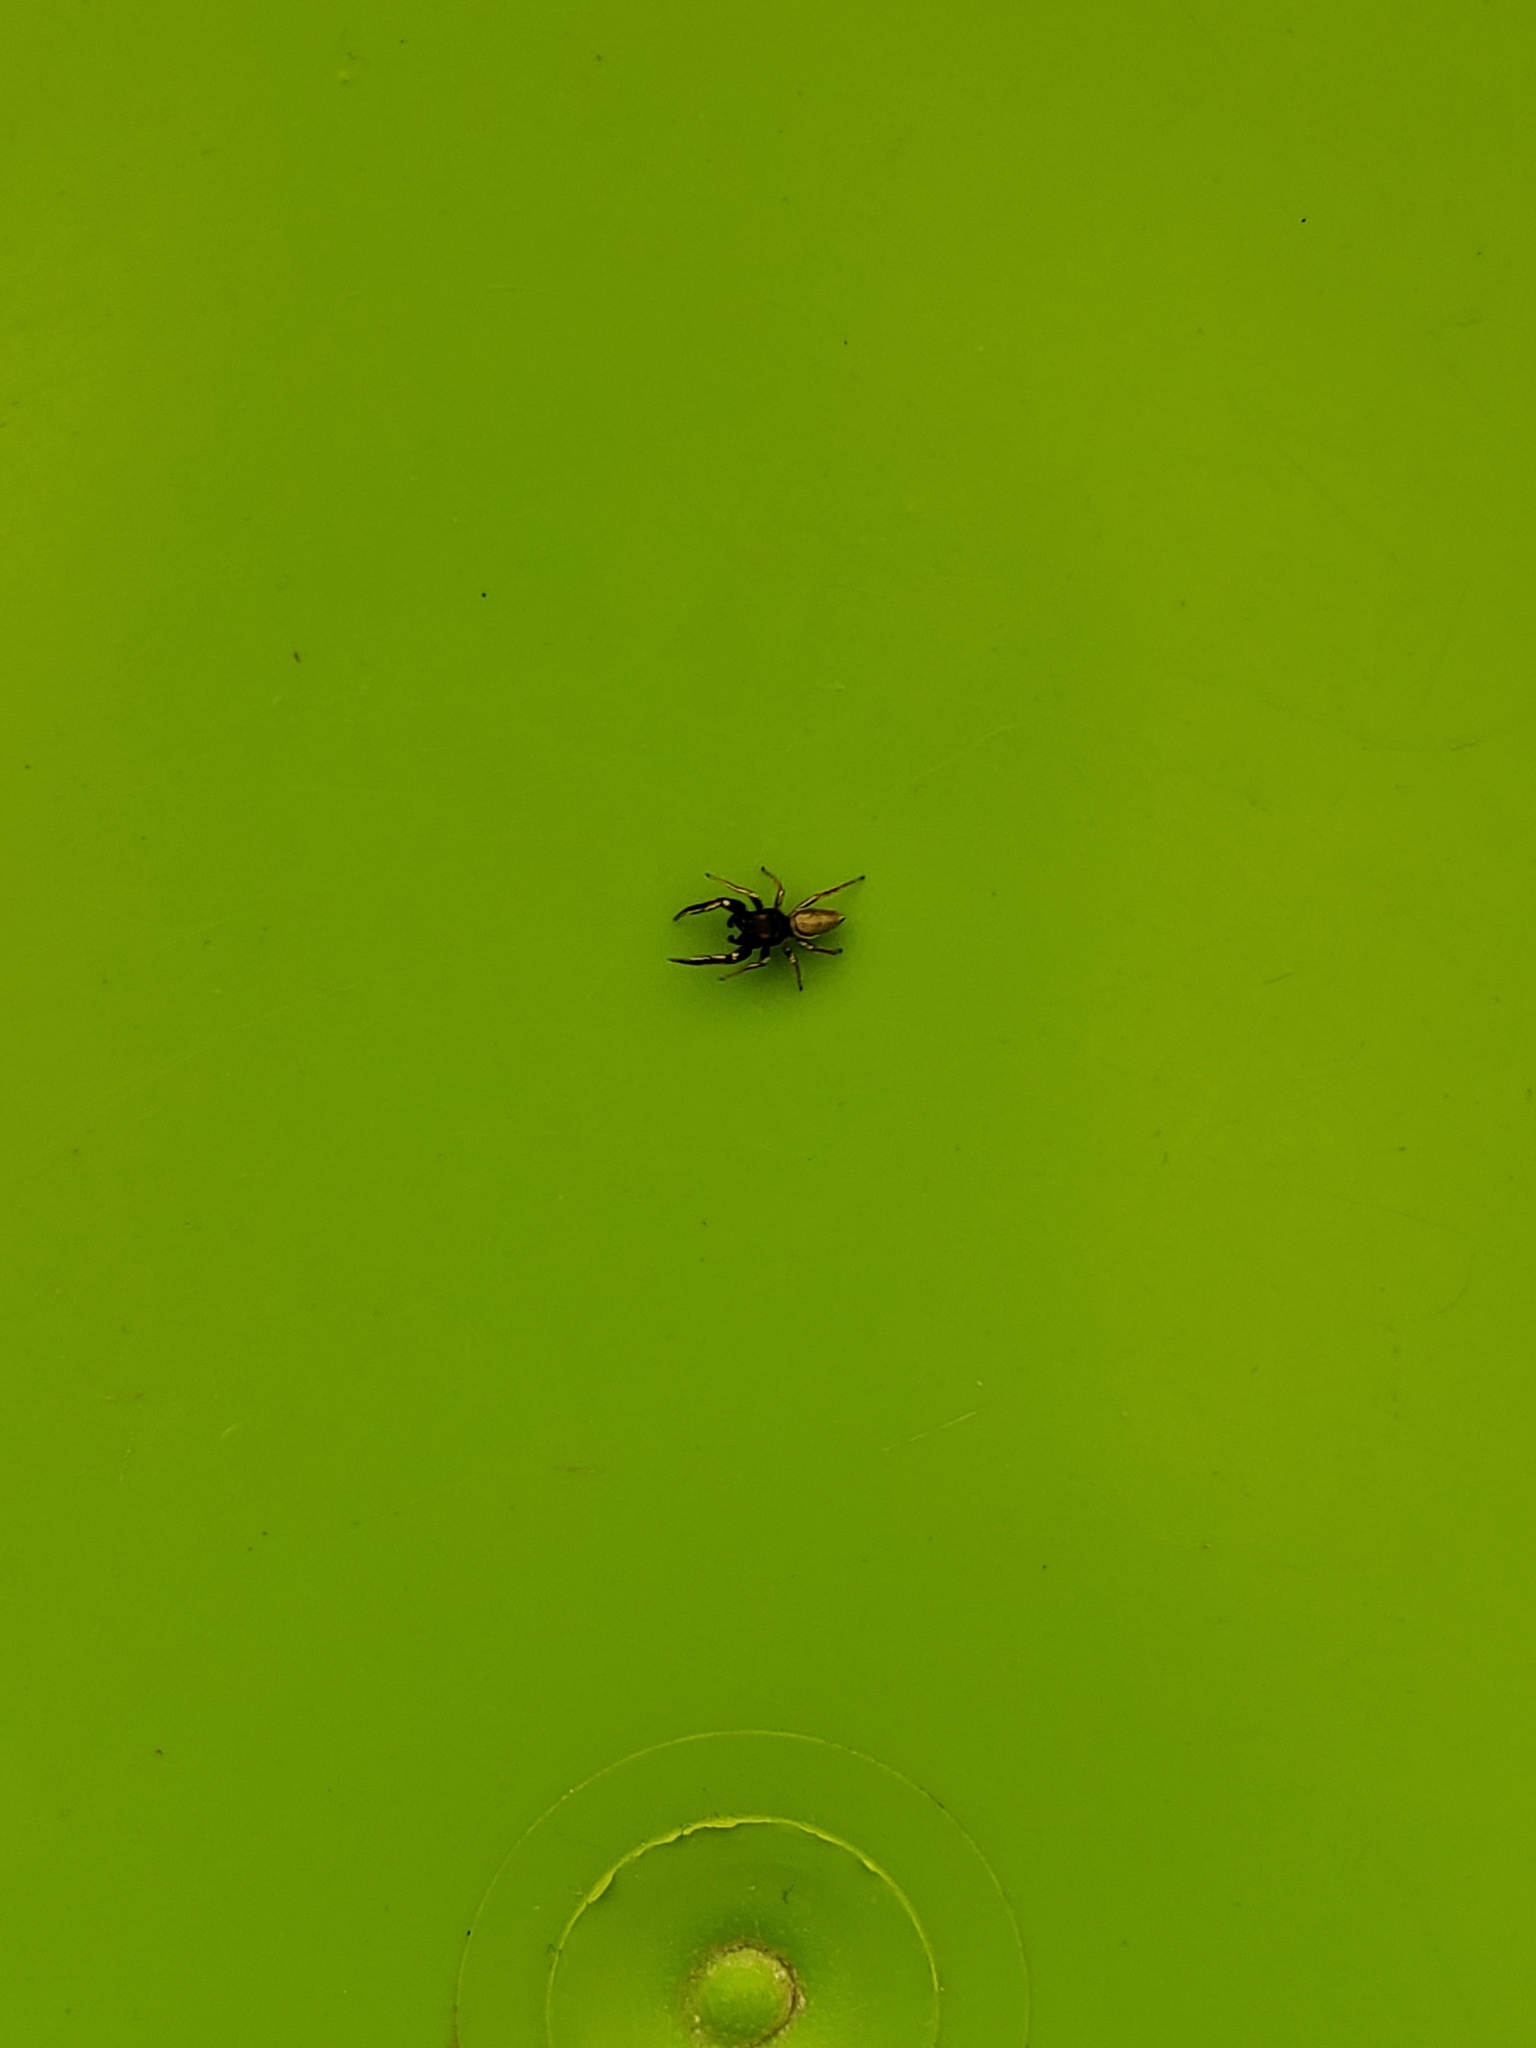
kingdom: Animalia
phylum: Arthropoda
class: Arachnida
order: Araneae
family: Salticidae
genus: Sassacus
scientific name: Sassacus vitis
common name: Jumping spiders
